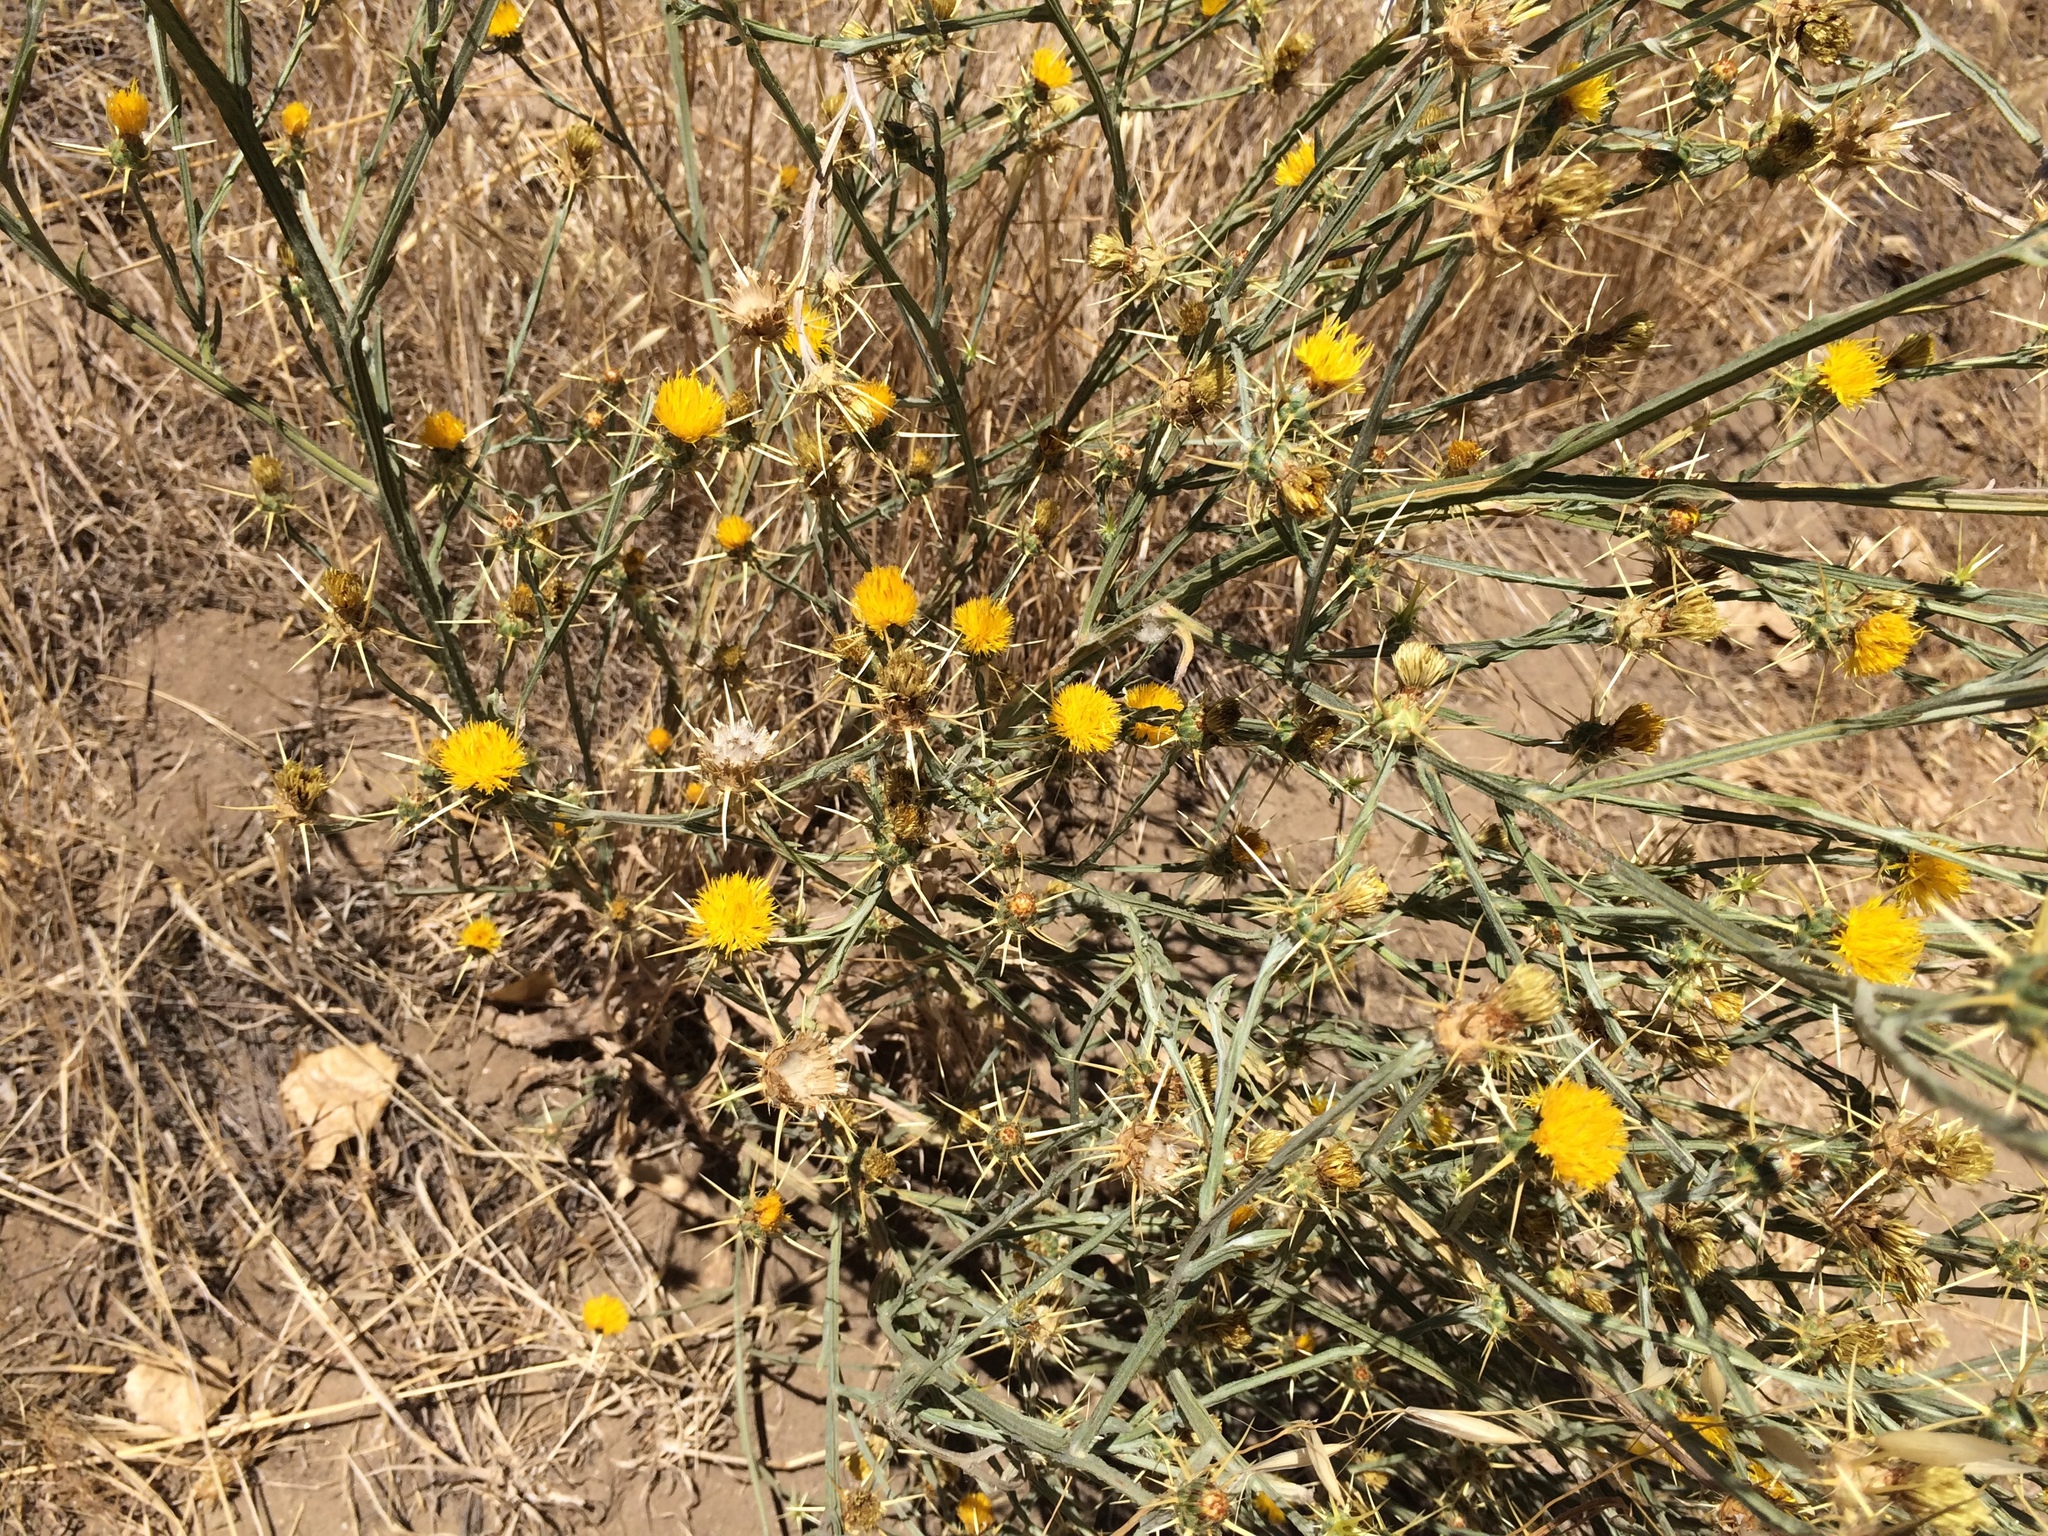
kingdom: Plantae
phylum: Tracheophyta
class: Magnoliopsida
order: Asterales
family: Asteraceae
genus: Centaurea
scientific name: Centaurea solstitialis
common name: Yellow star-thistle
